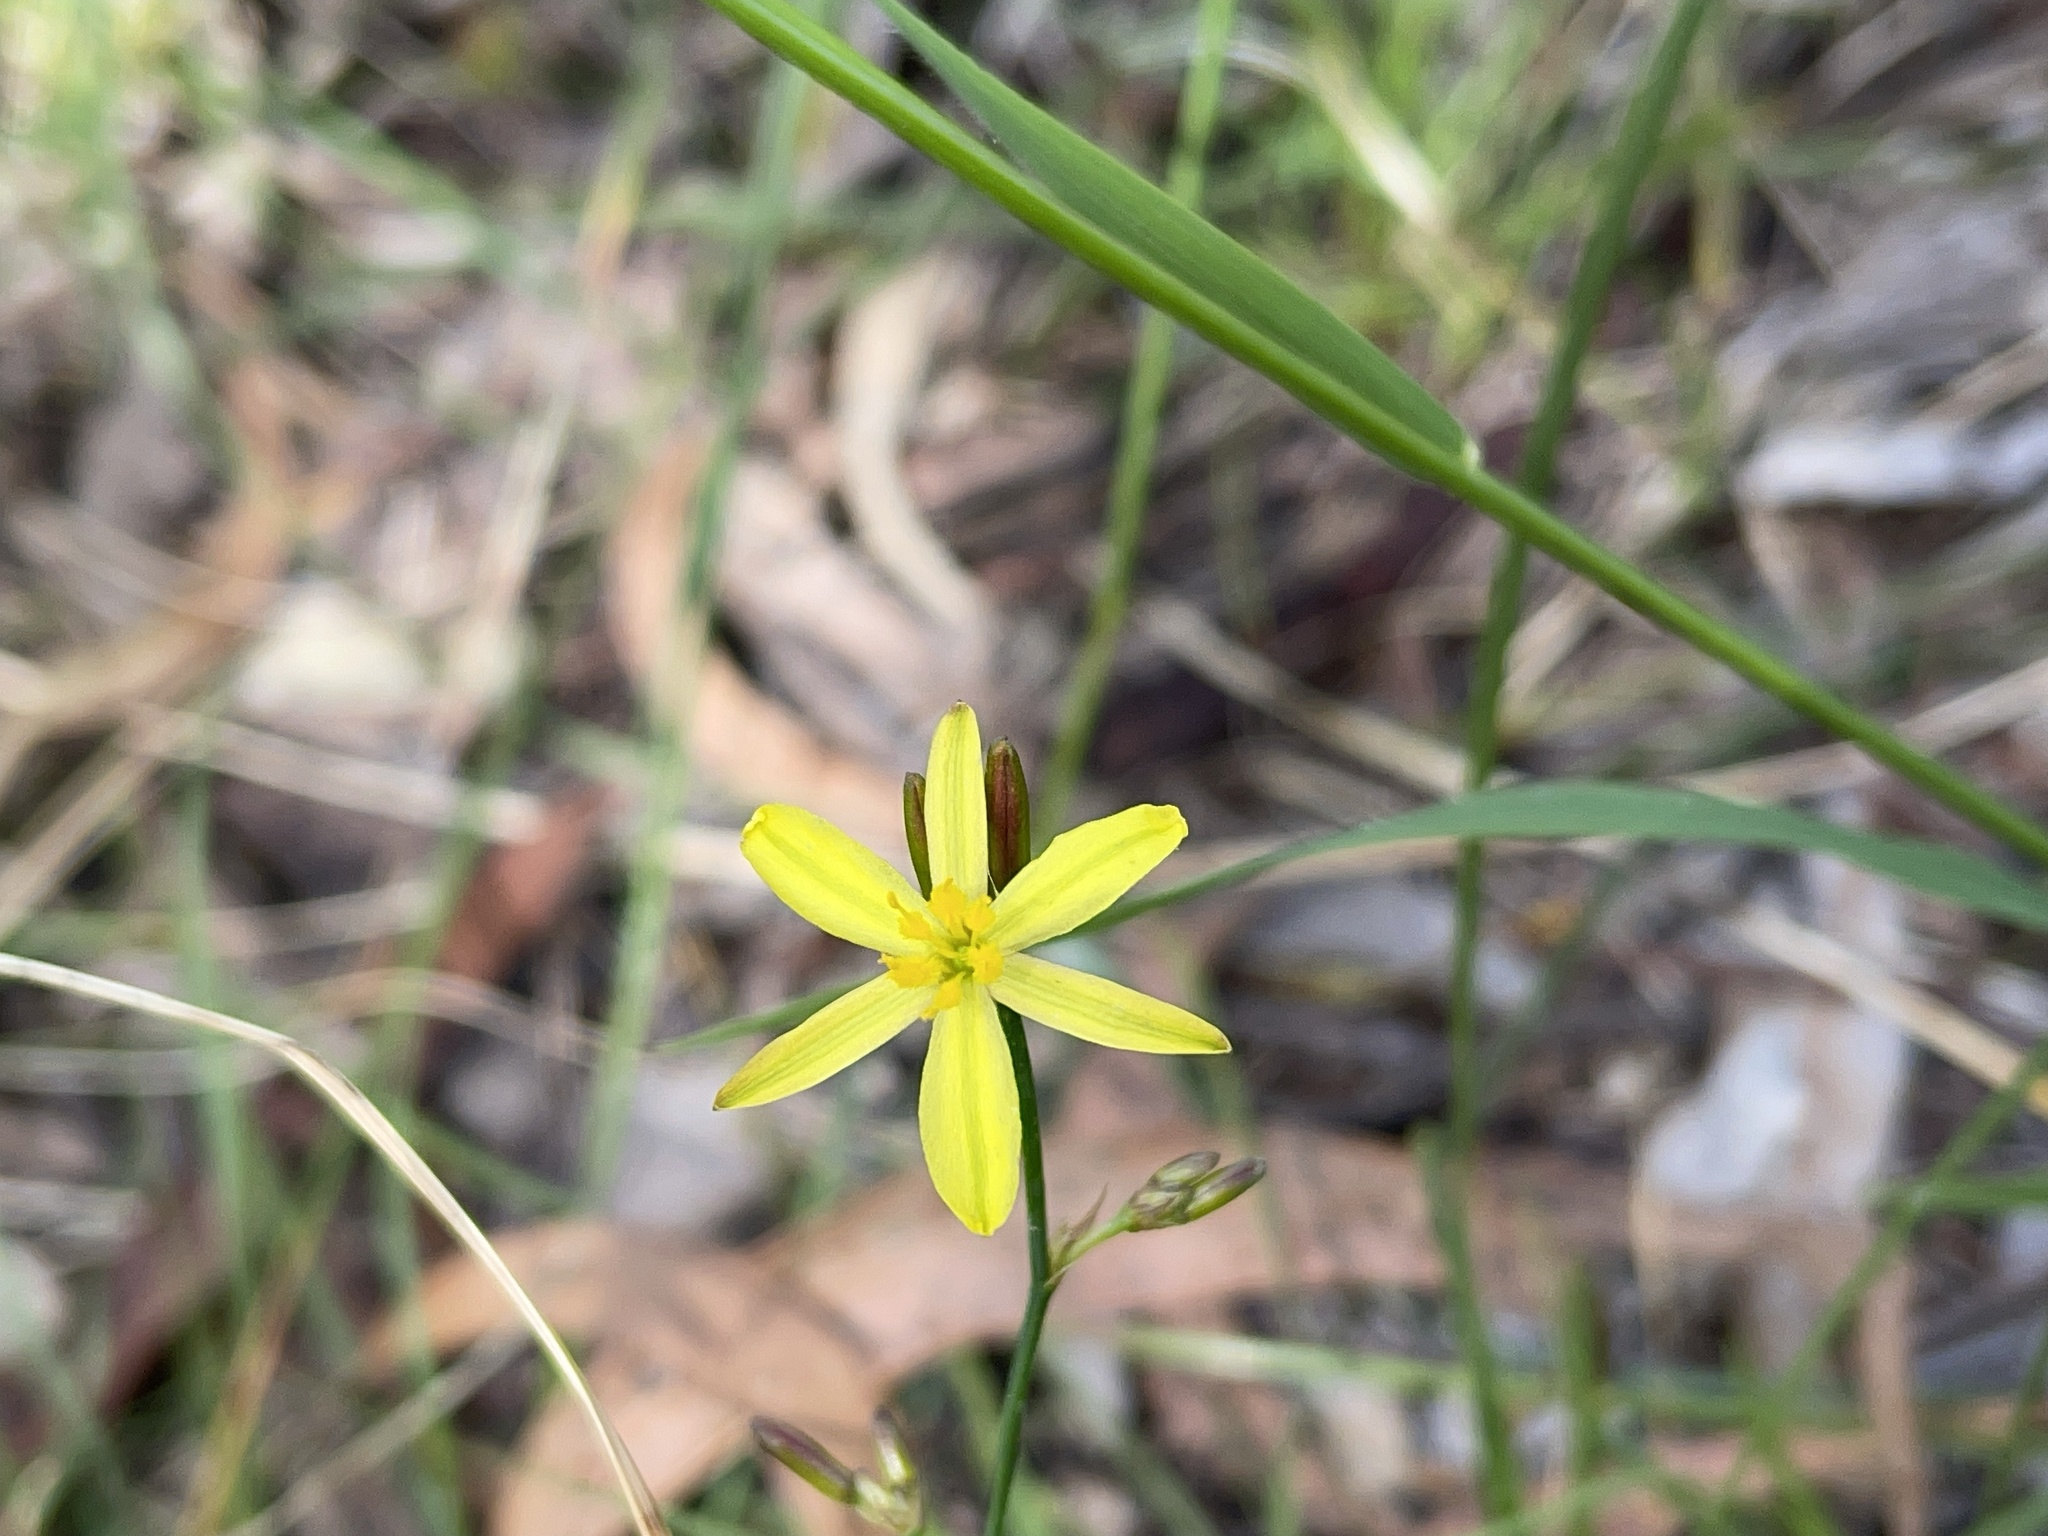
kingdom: Plantae
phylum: Tracheophyta
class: Liliopsida
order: Asparagales
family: Asphodelaceae
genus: Tricoryne
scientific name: Tricoryne elatior
